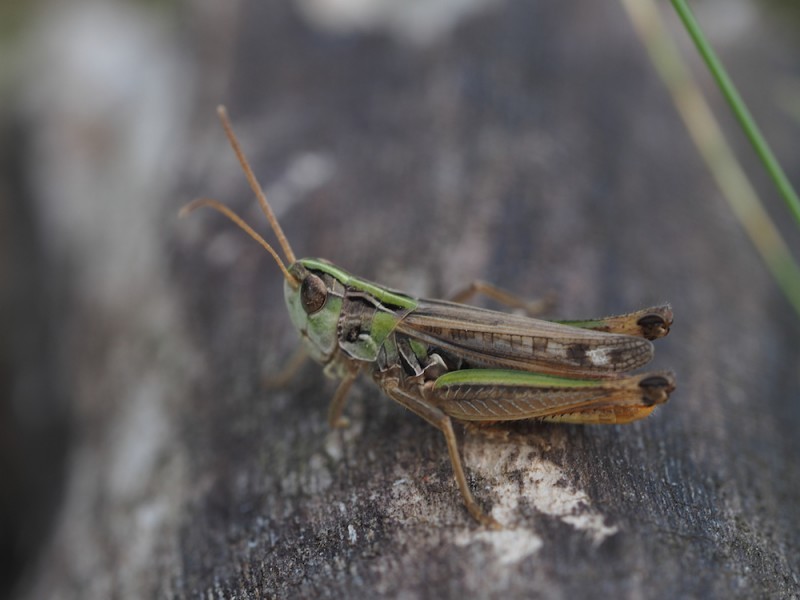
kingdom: Animalia
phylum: Arthropoda
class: Insecta
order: Orthoptera
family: Acrididae
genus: Stenobothrus
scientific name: Stenobothrus nigromaculatus
